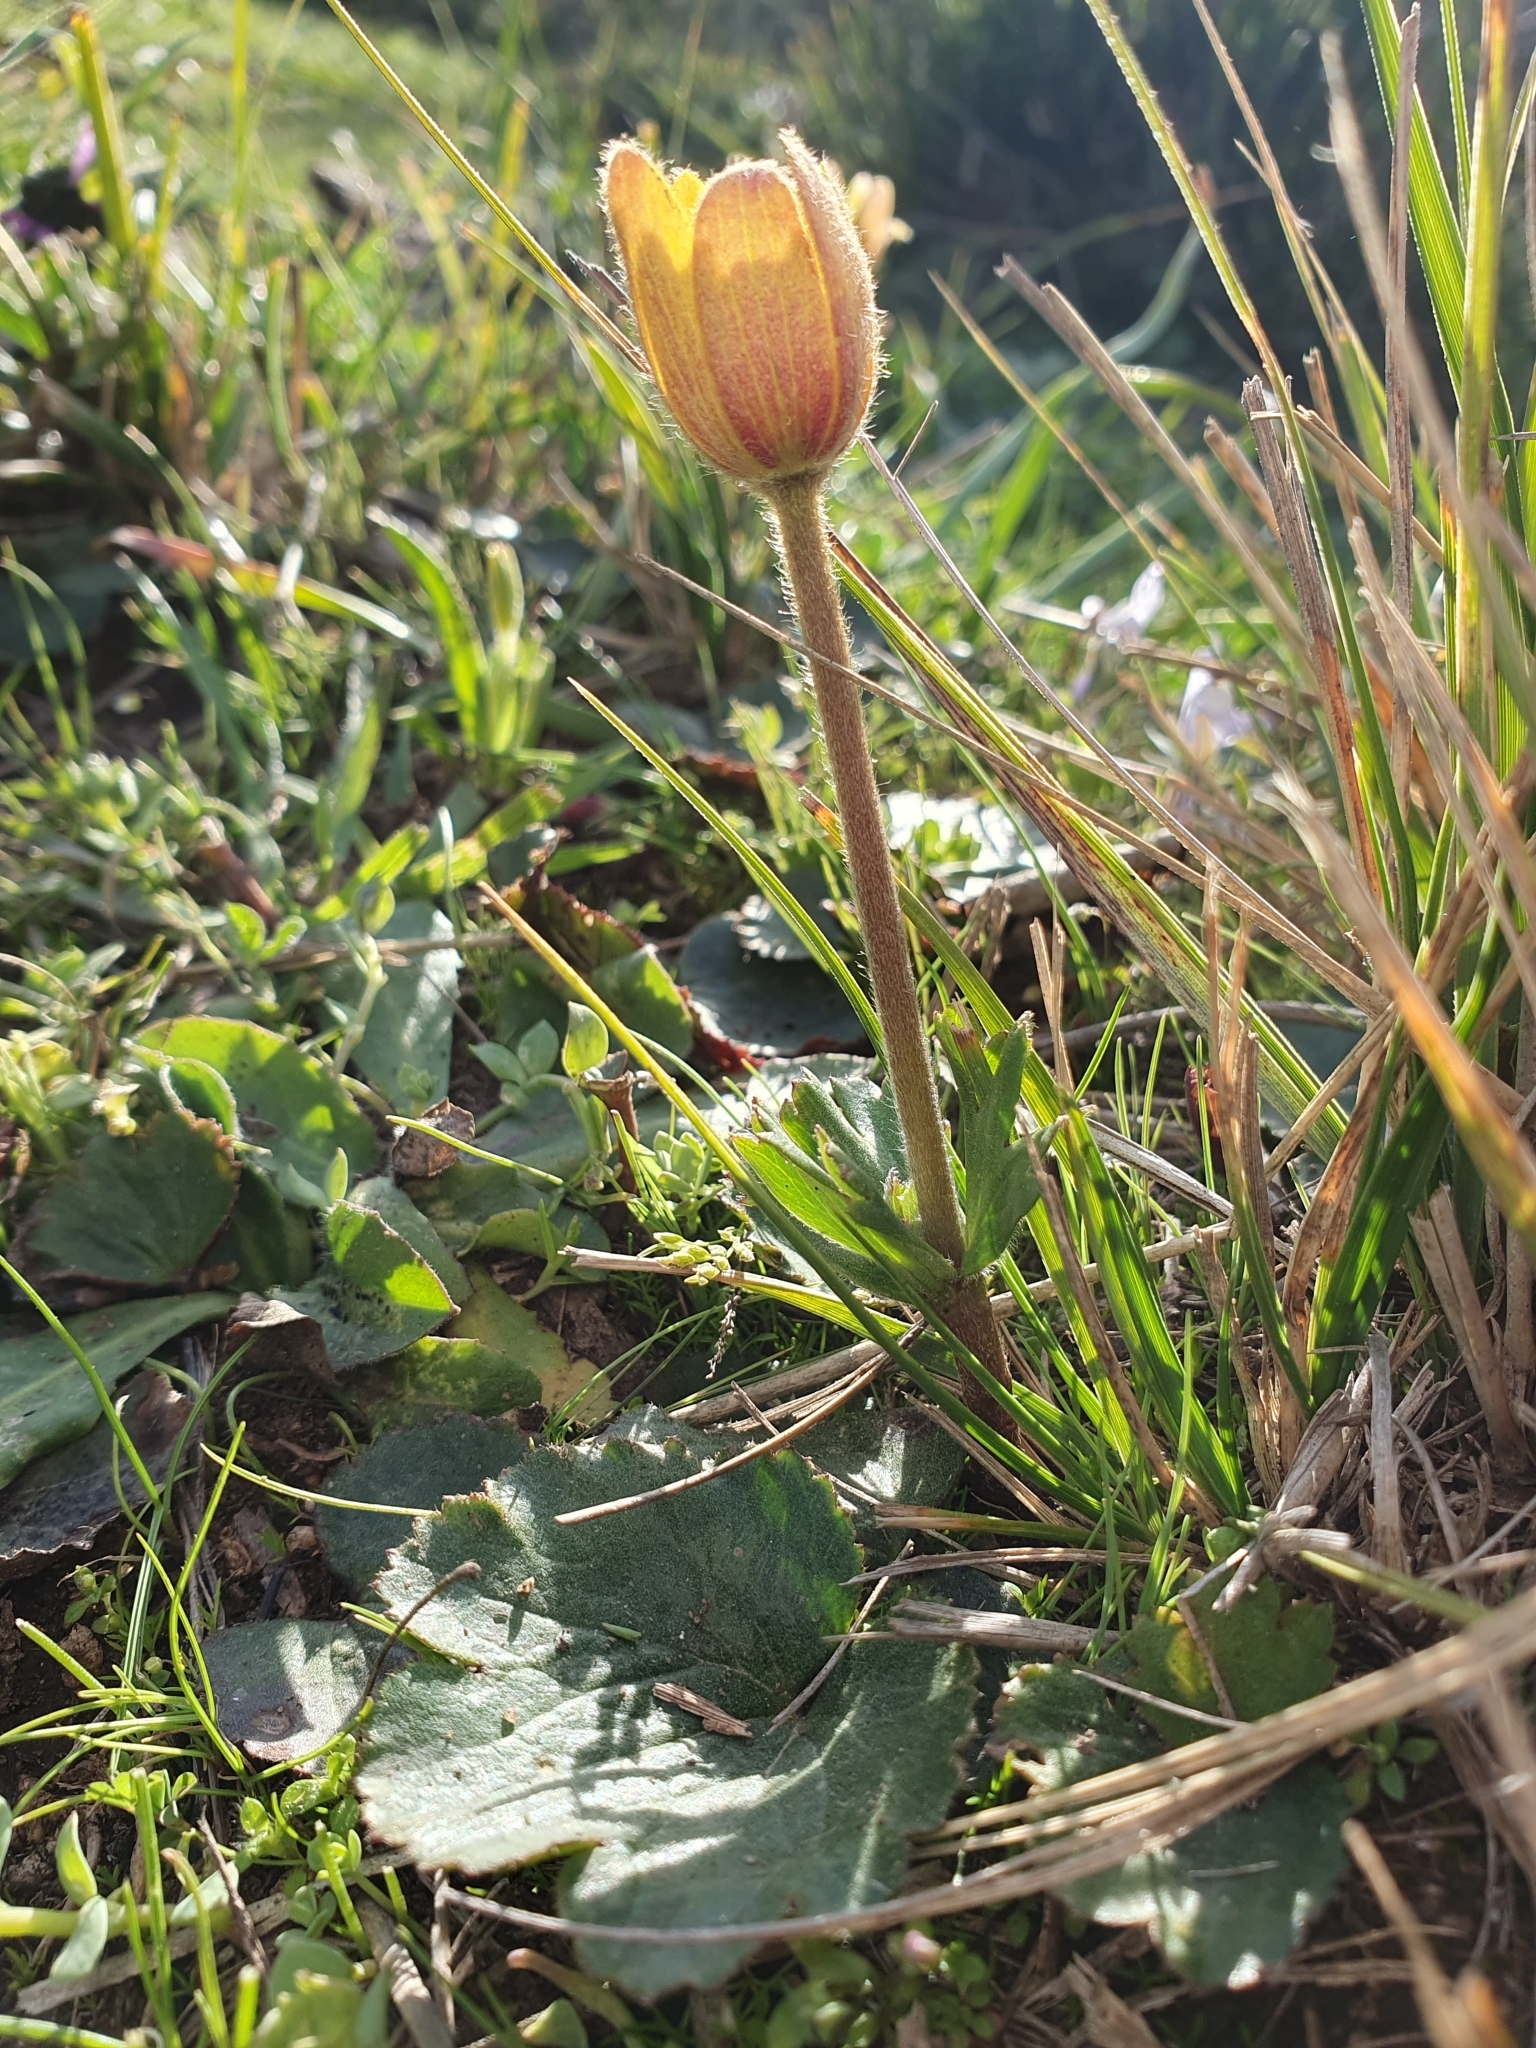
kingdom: Plantae
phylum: Tracheophyta
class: Magnoliopsida
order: Ranunculales
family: Ranunculaceae
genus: Anemone
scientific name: Anemone palmata
